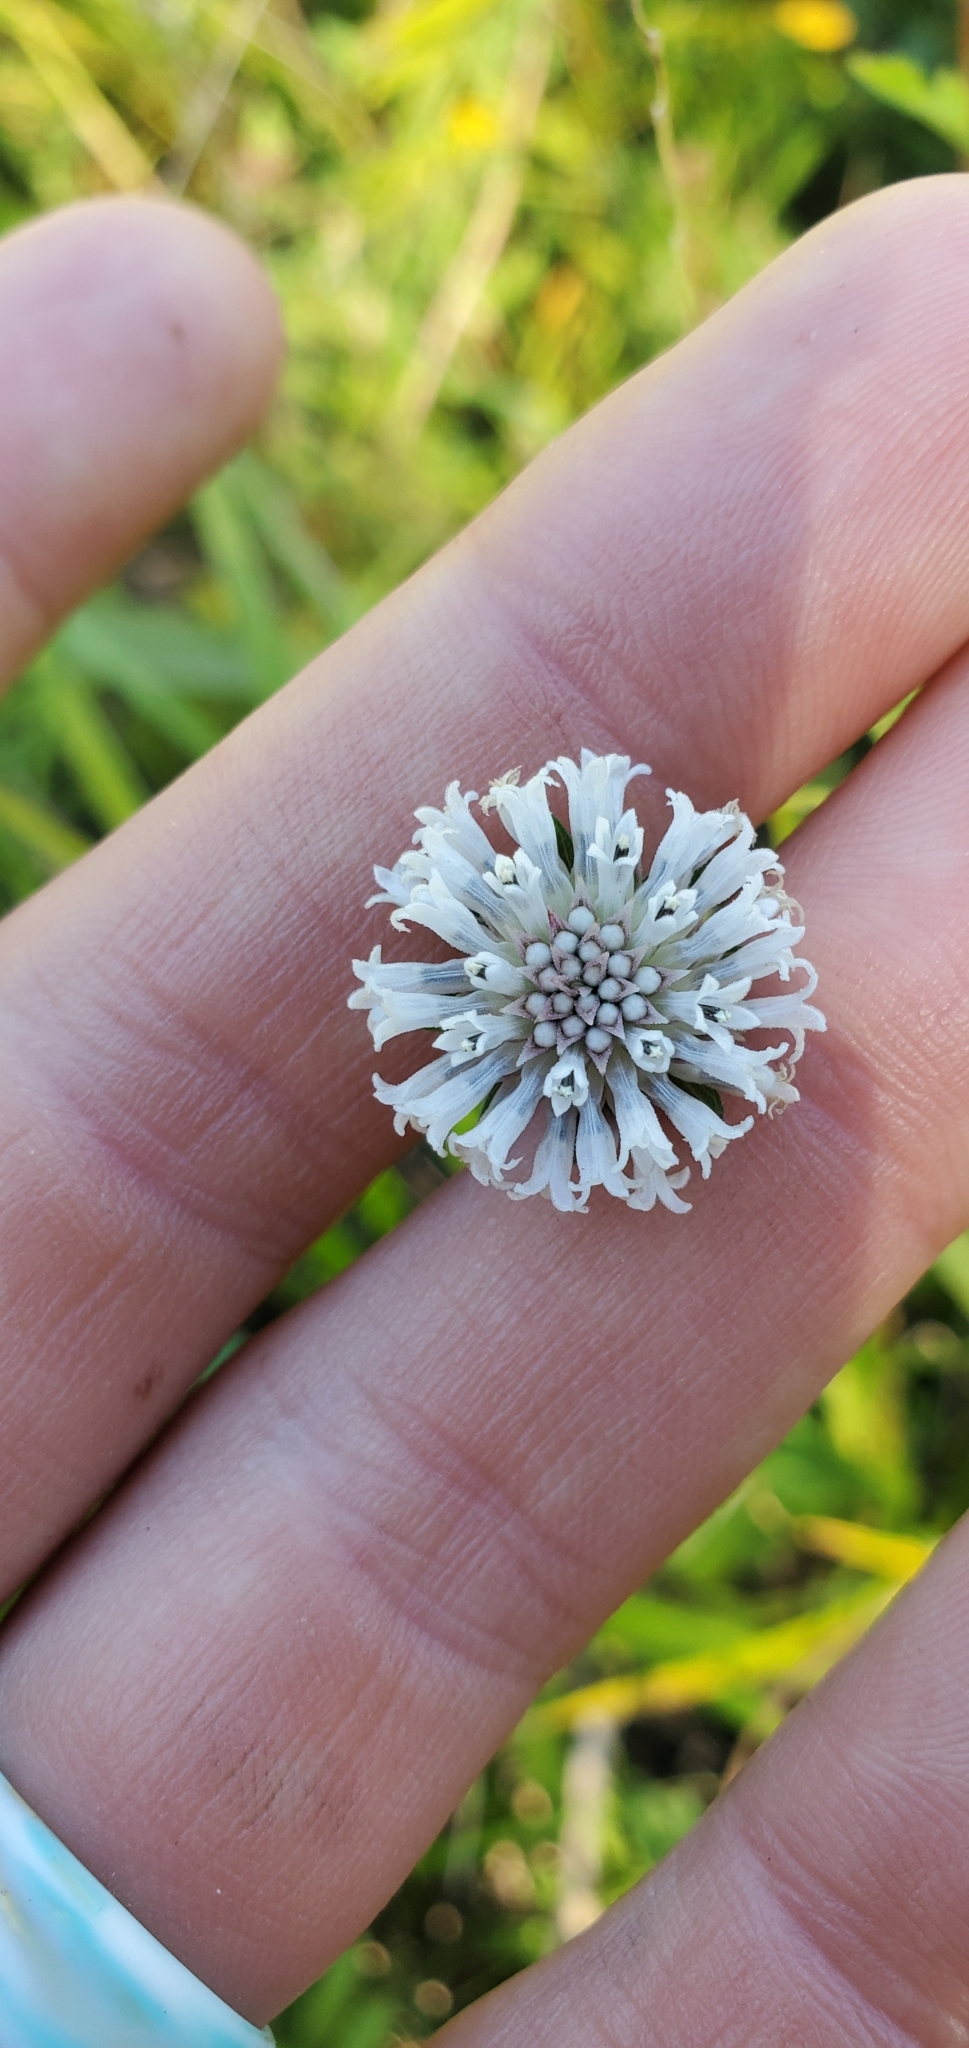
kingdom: Plantae
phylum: Tracheophyta
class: Magnoliopsida
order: Asterales
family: Asteraceae
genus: Melanthera
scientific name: Melanthera nivea
